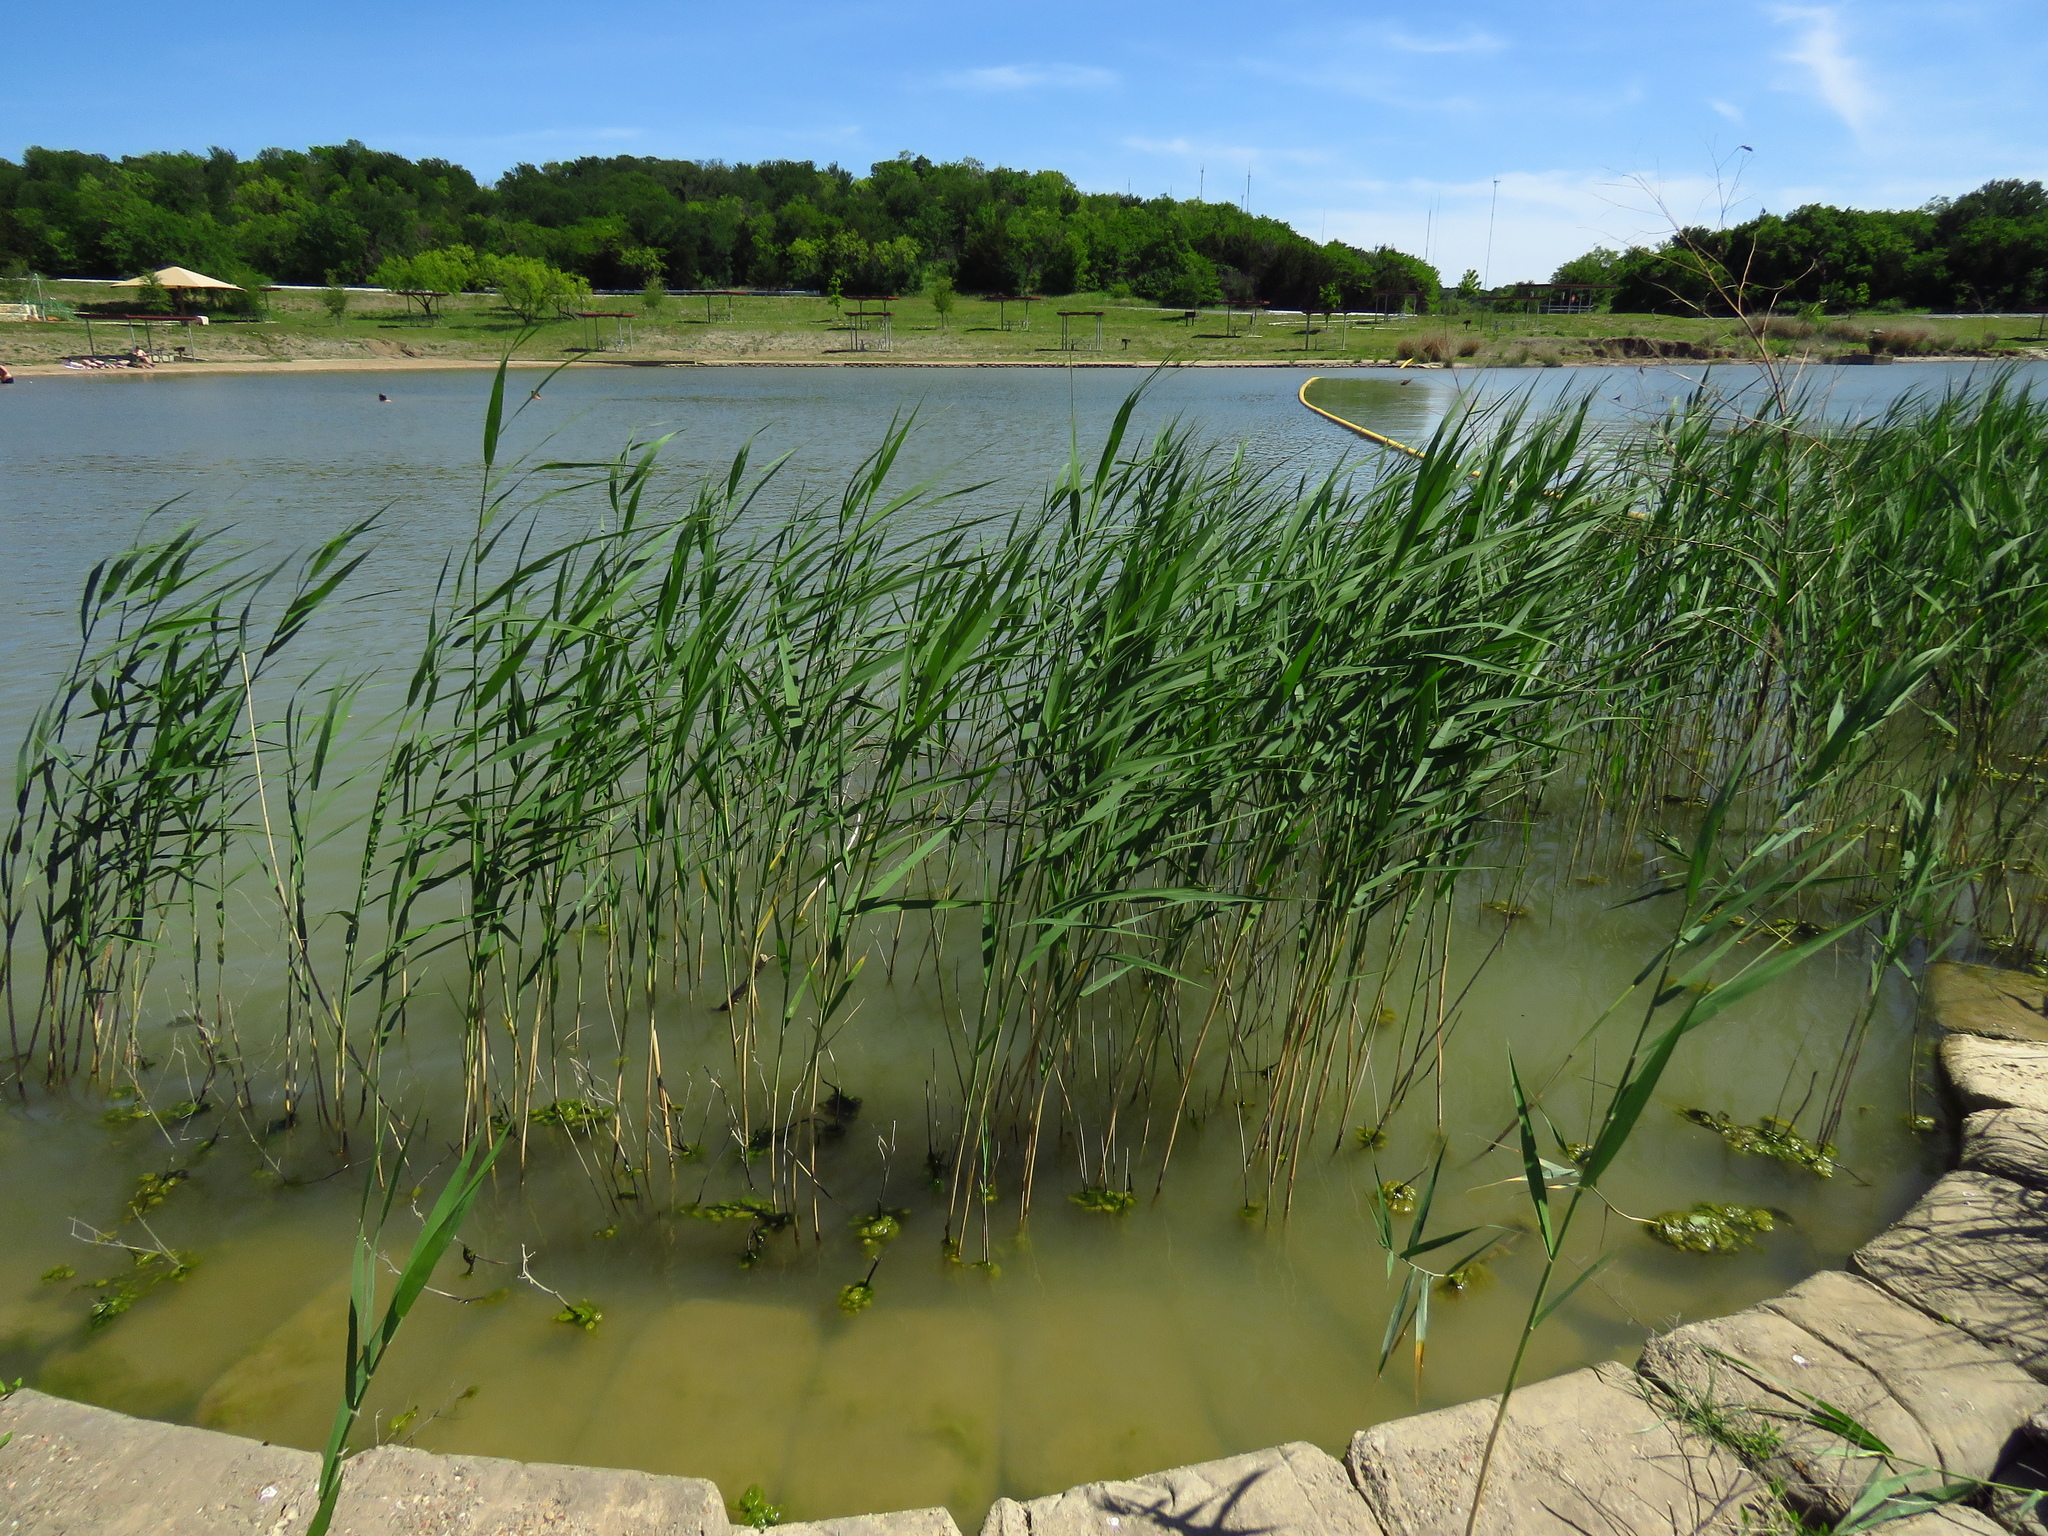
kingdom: Plantae
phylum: Tracheophyta
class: Liliopsida
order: Poales
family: Poaceae
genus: Phragmites
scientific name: Phragmites australis
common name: Common reed
